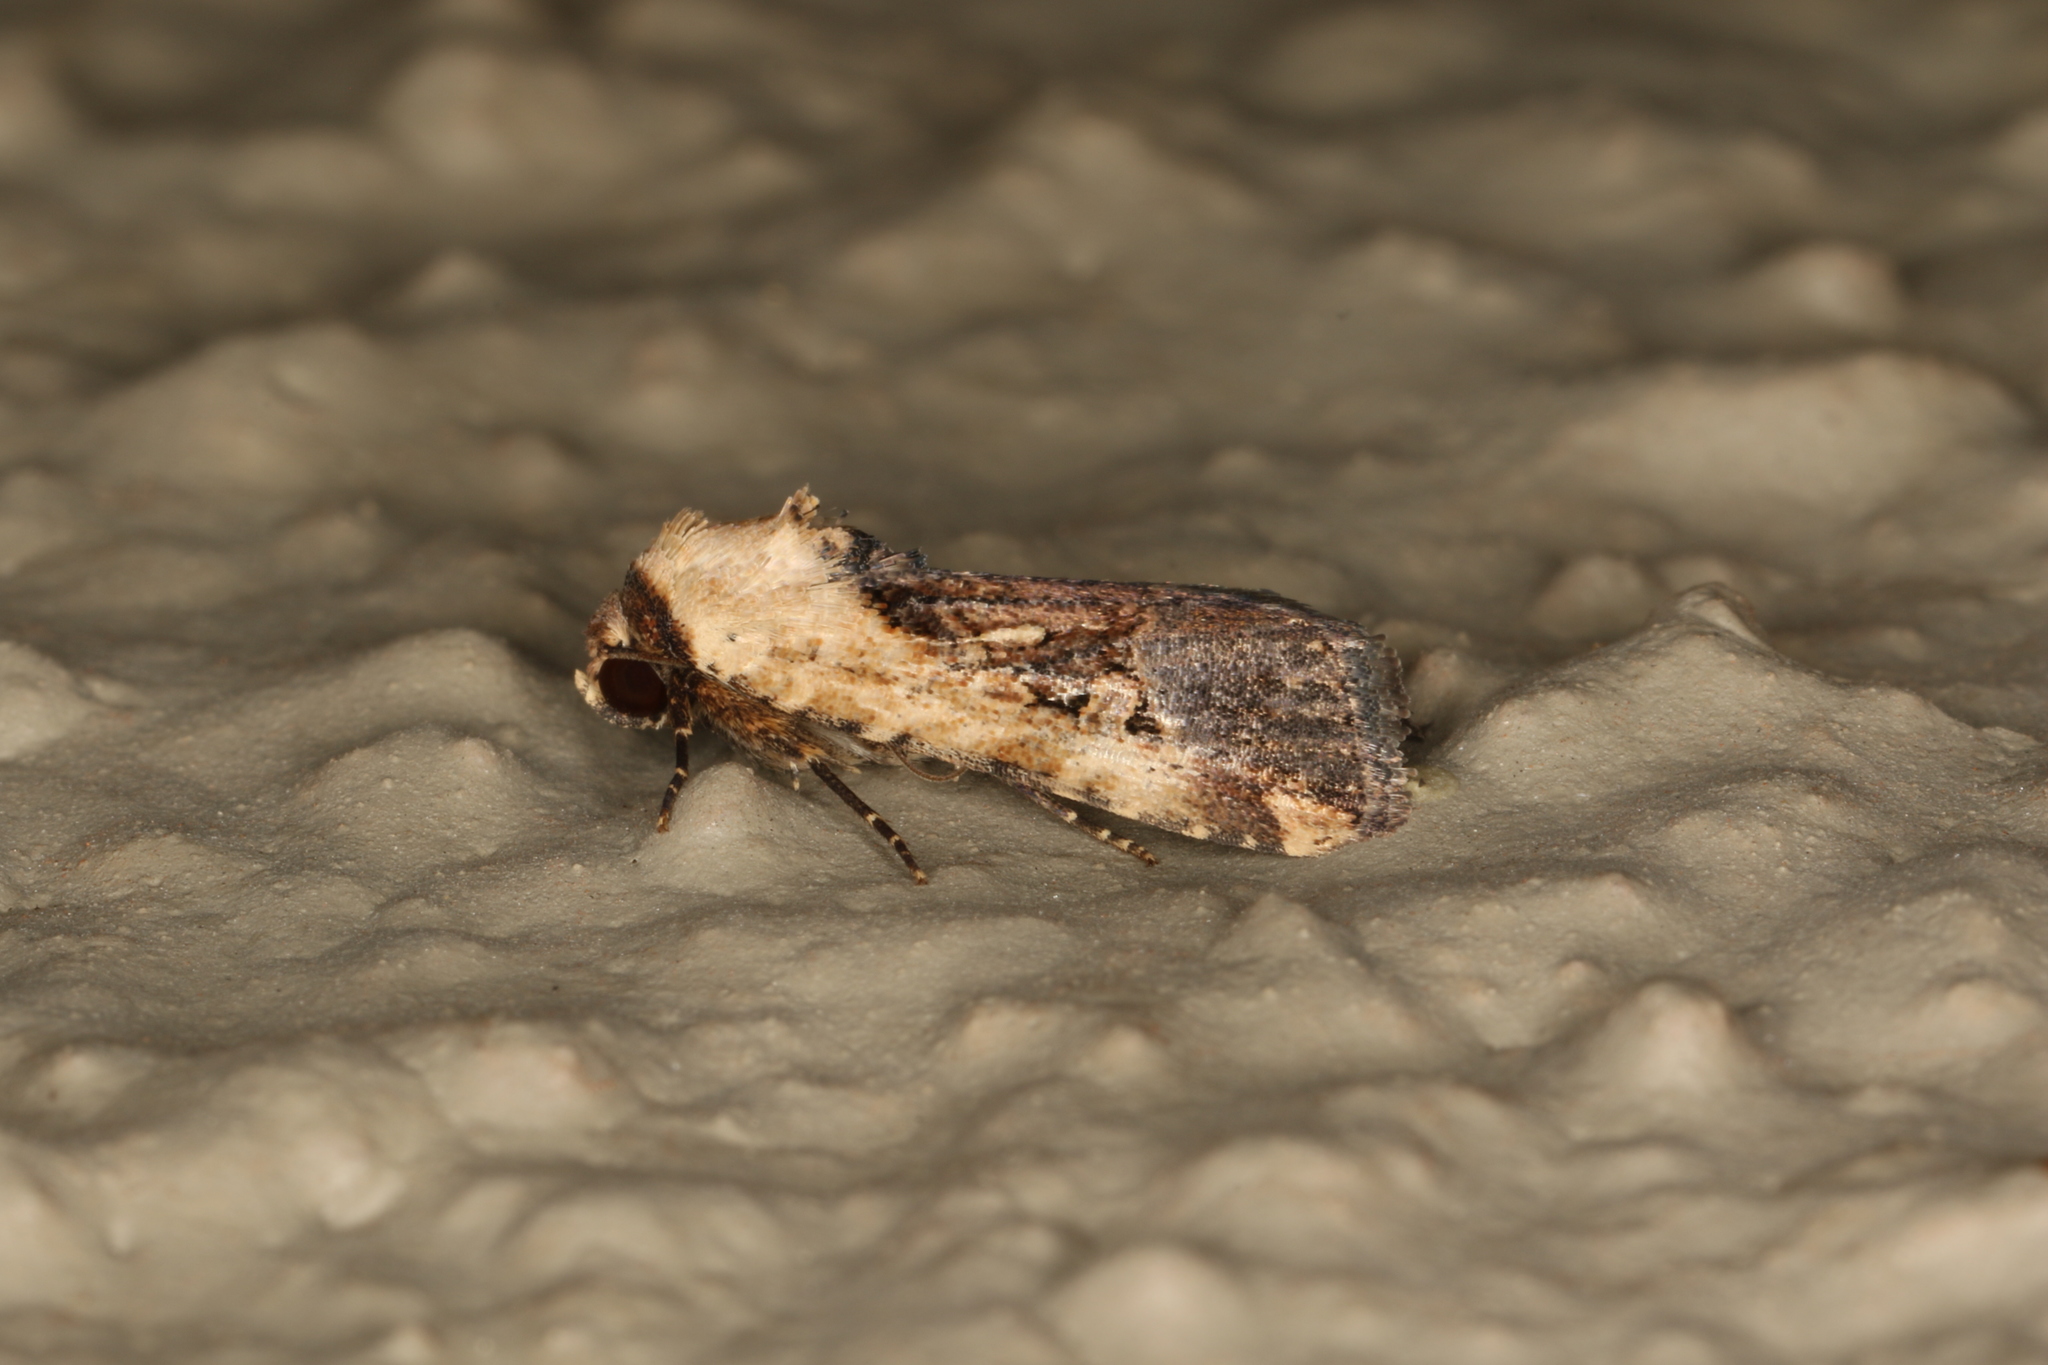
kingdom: Animalia
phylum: Arthropoda
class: Insecta
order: Lepidoptera
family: Noctuidae
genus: Elaphria
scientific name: Elaphria agrotina
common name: Agrotina midget
